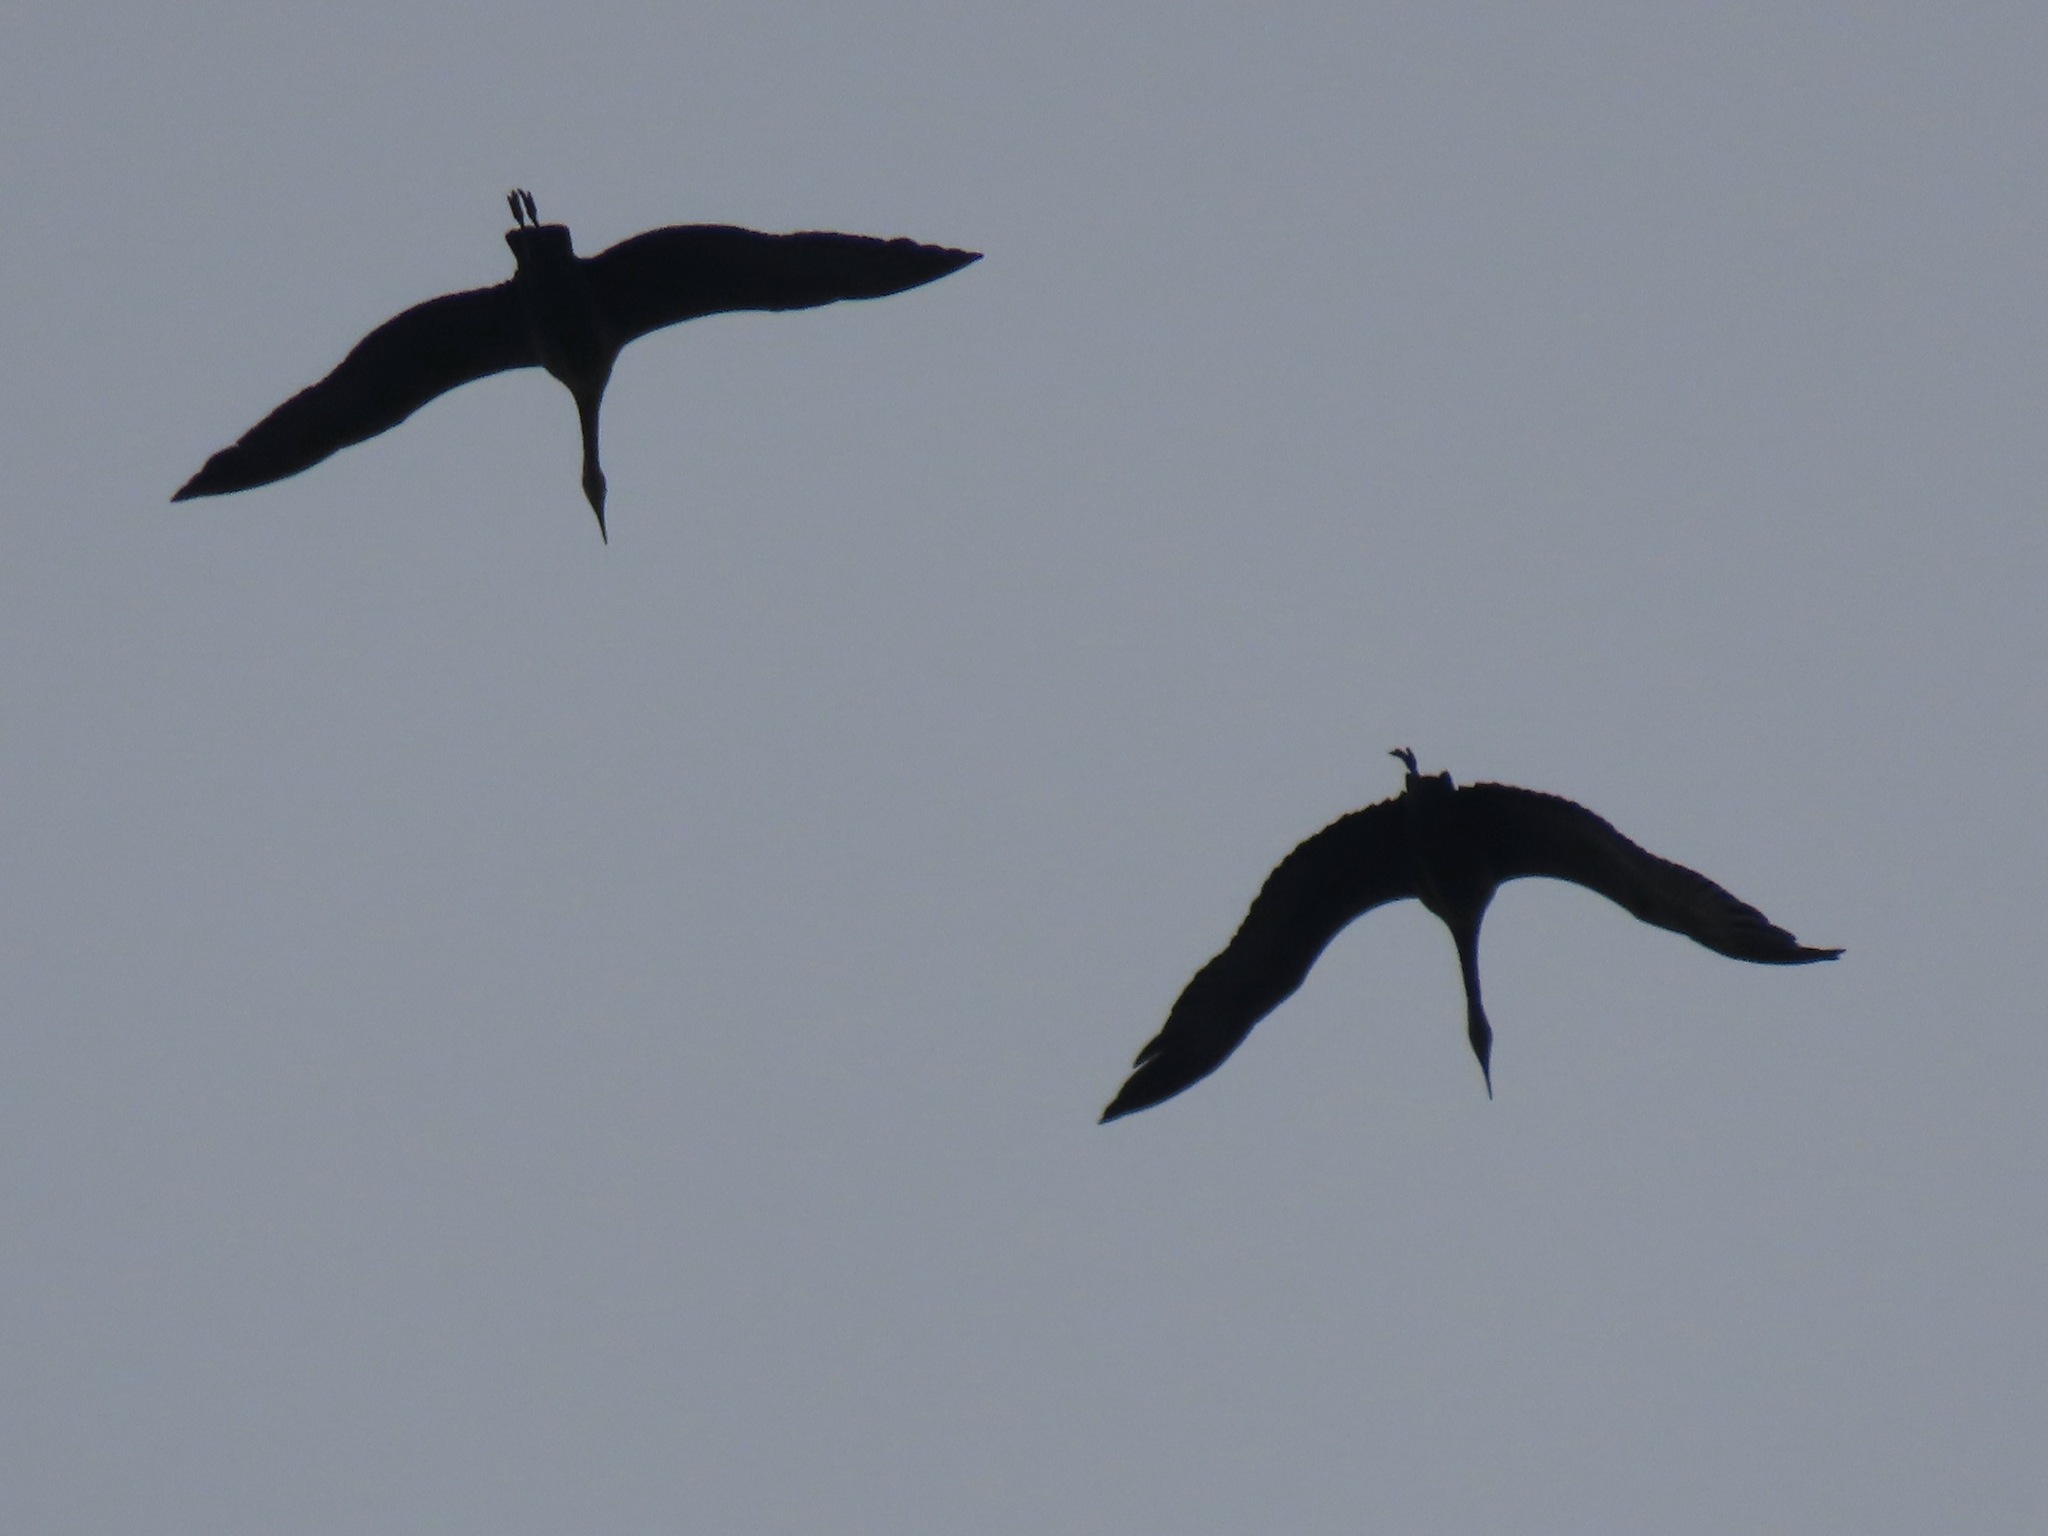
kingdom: Animalia
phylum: Chordata
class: Aves
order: Gruiformes
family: Gruidae
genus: Grus
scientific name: Grus canadensis
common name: Sandhill crane
